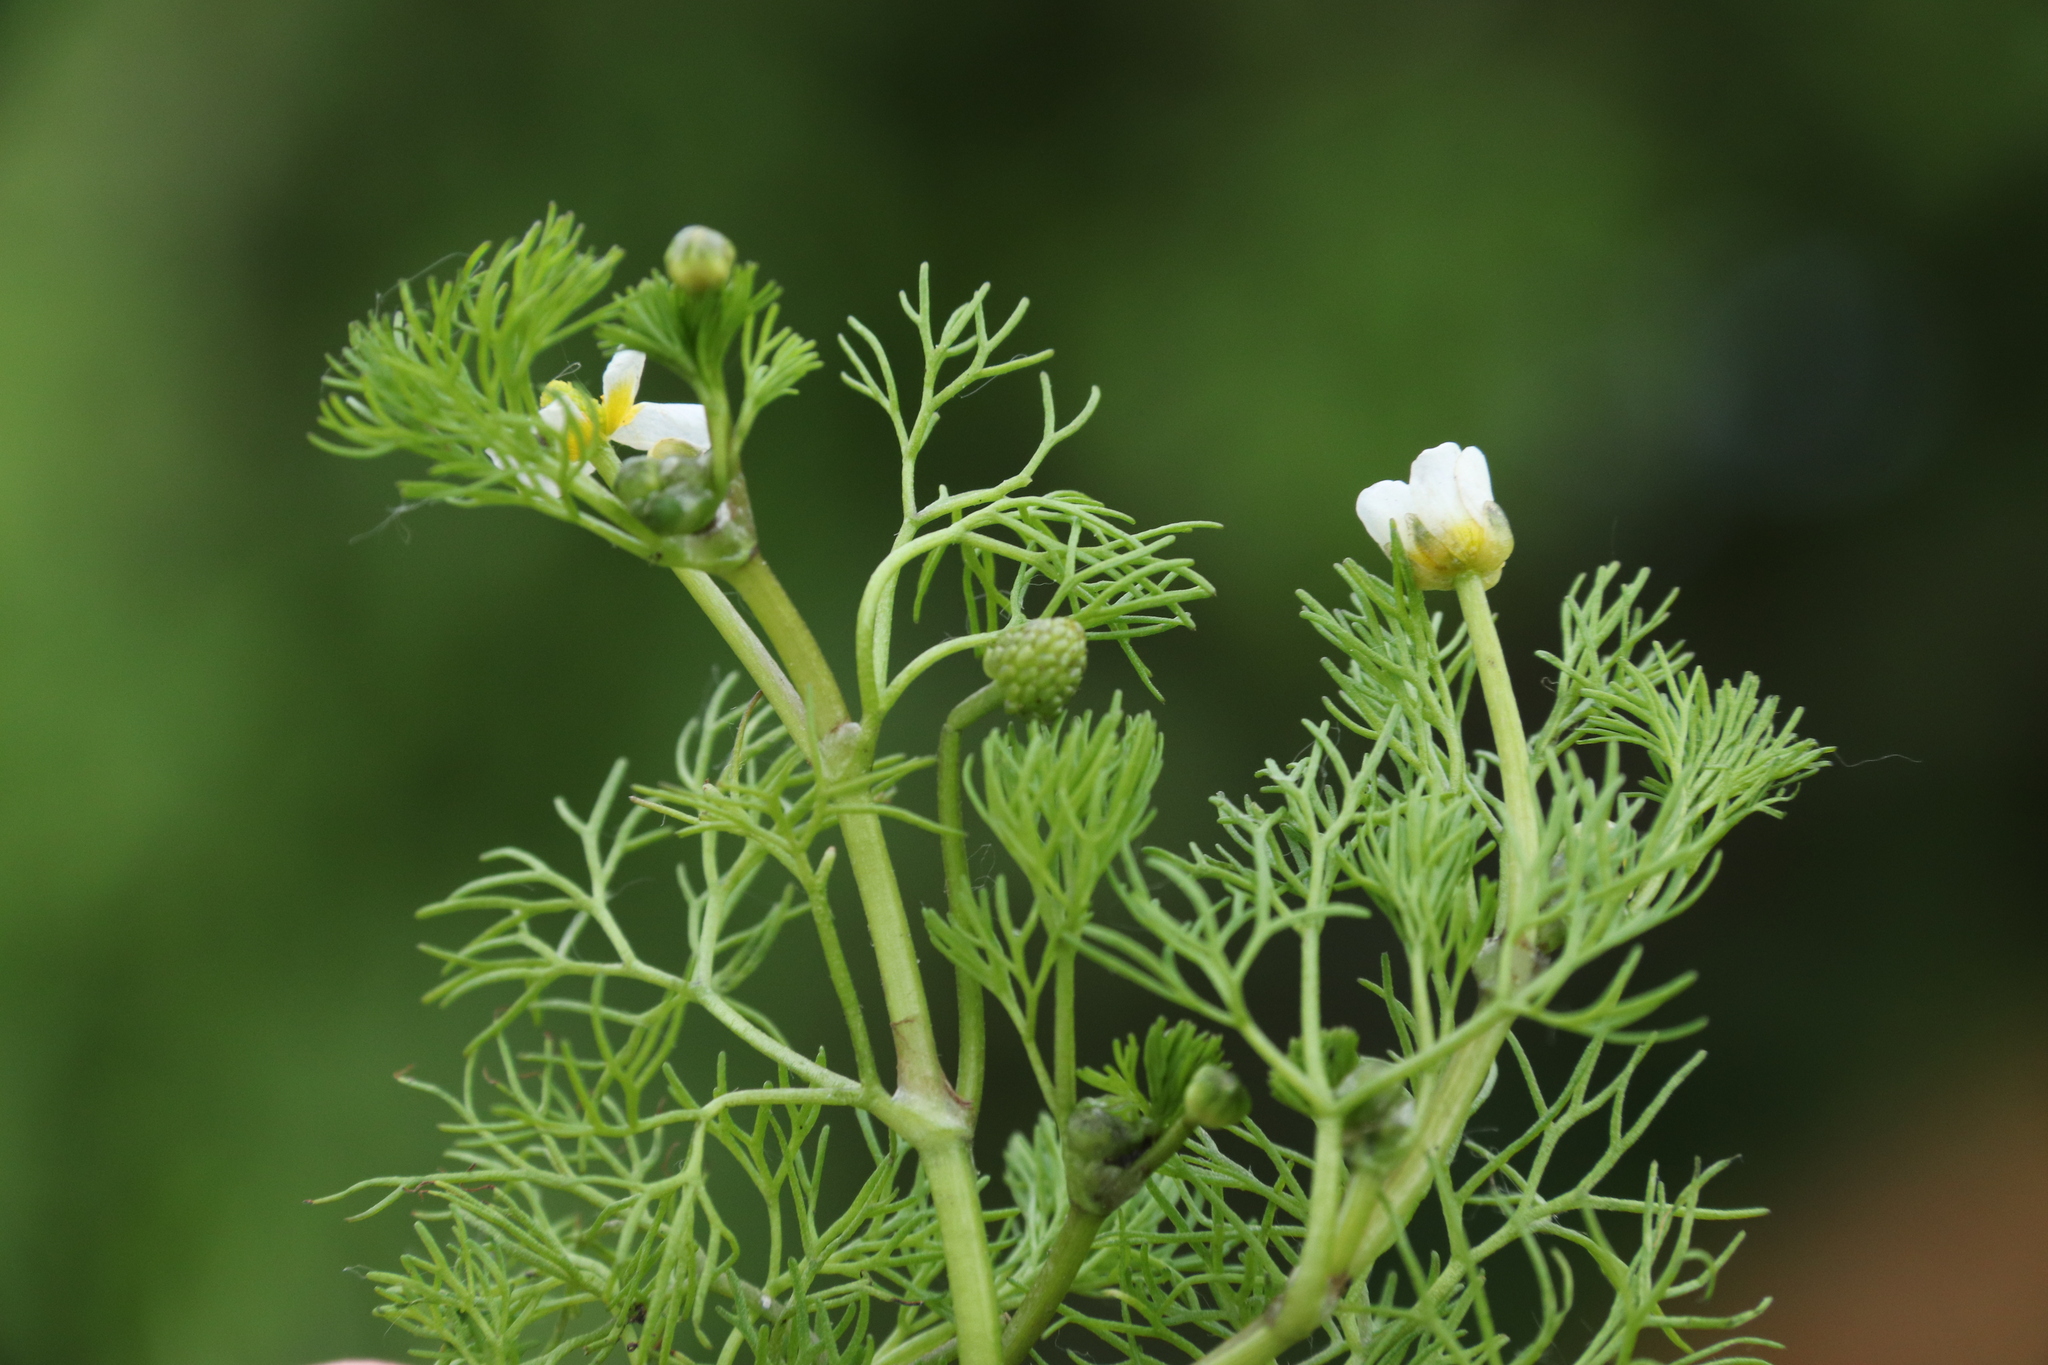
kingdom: Plantae
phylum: Tracheophyta
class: Magnoliopsida
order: Ranunculales
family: Ranunculaceae
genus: Ranunculus
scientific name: Ranunculus rionii
